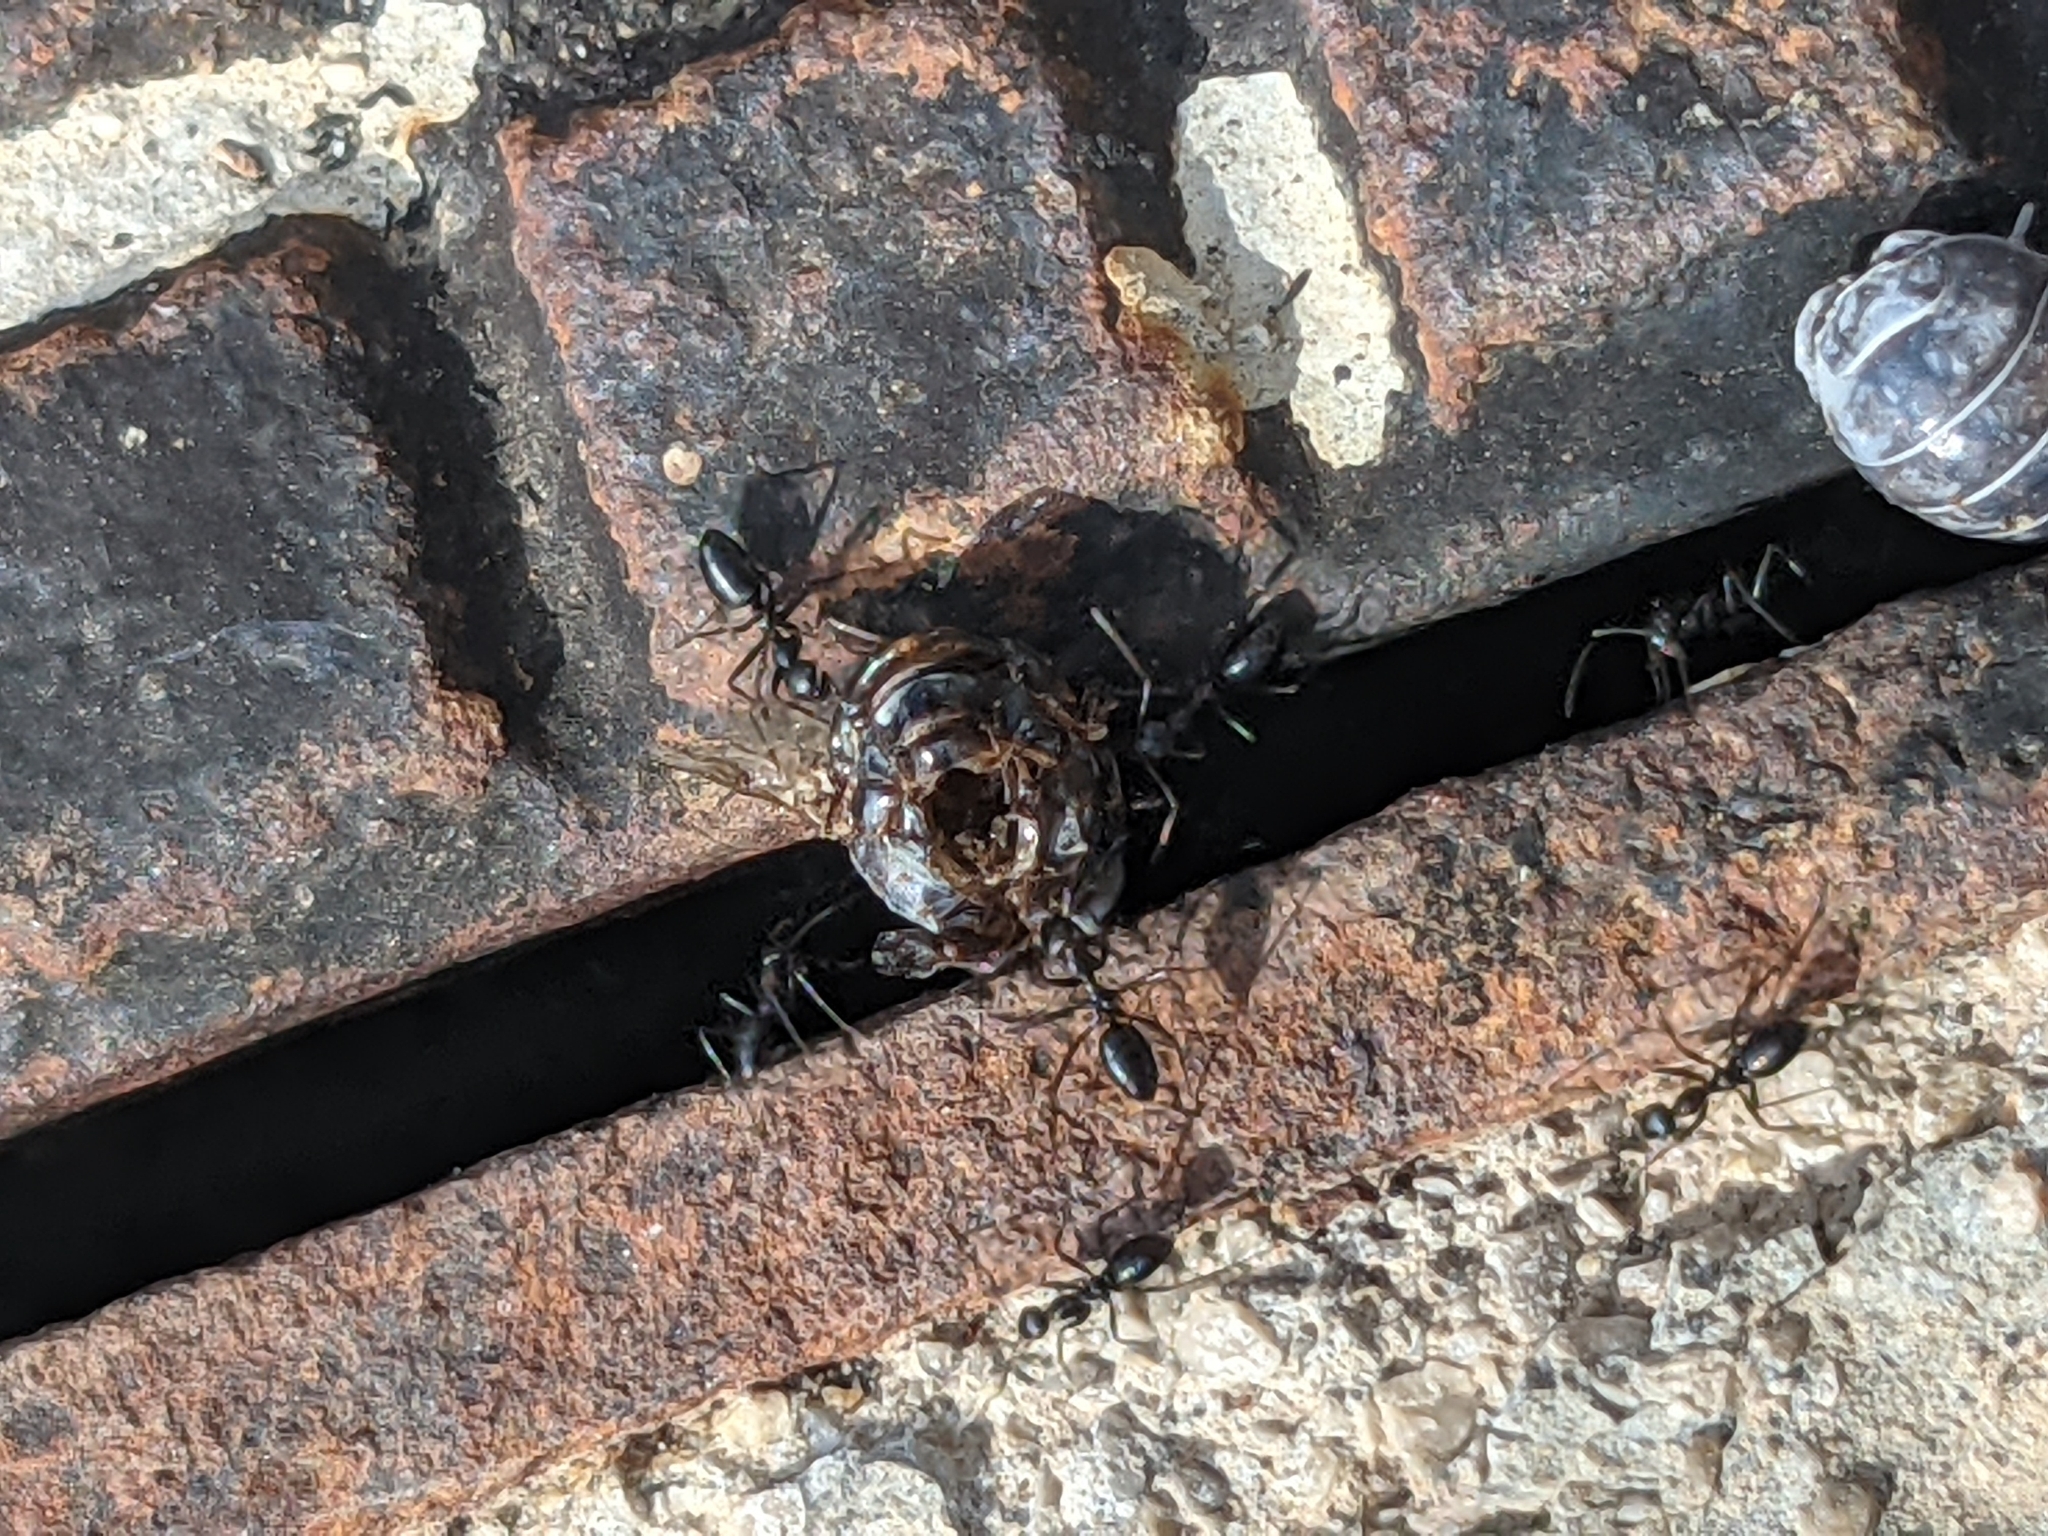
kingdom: Animalia
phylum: Arthropoda
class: Insecta
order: Hymenoptera
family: Formicidae
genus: Lepisiota
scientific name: Lepisiota melas
